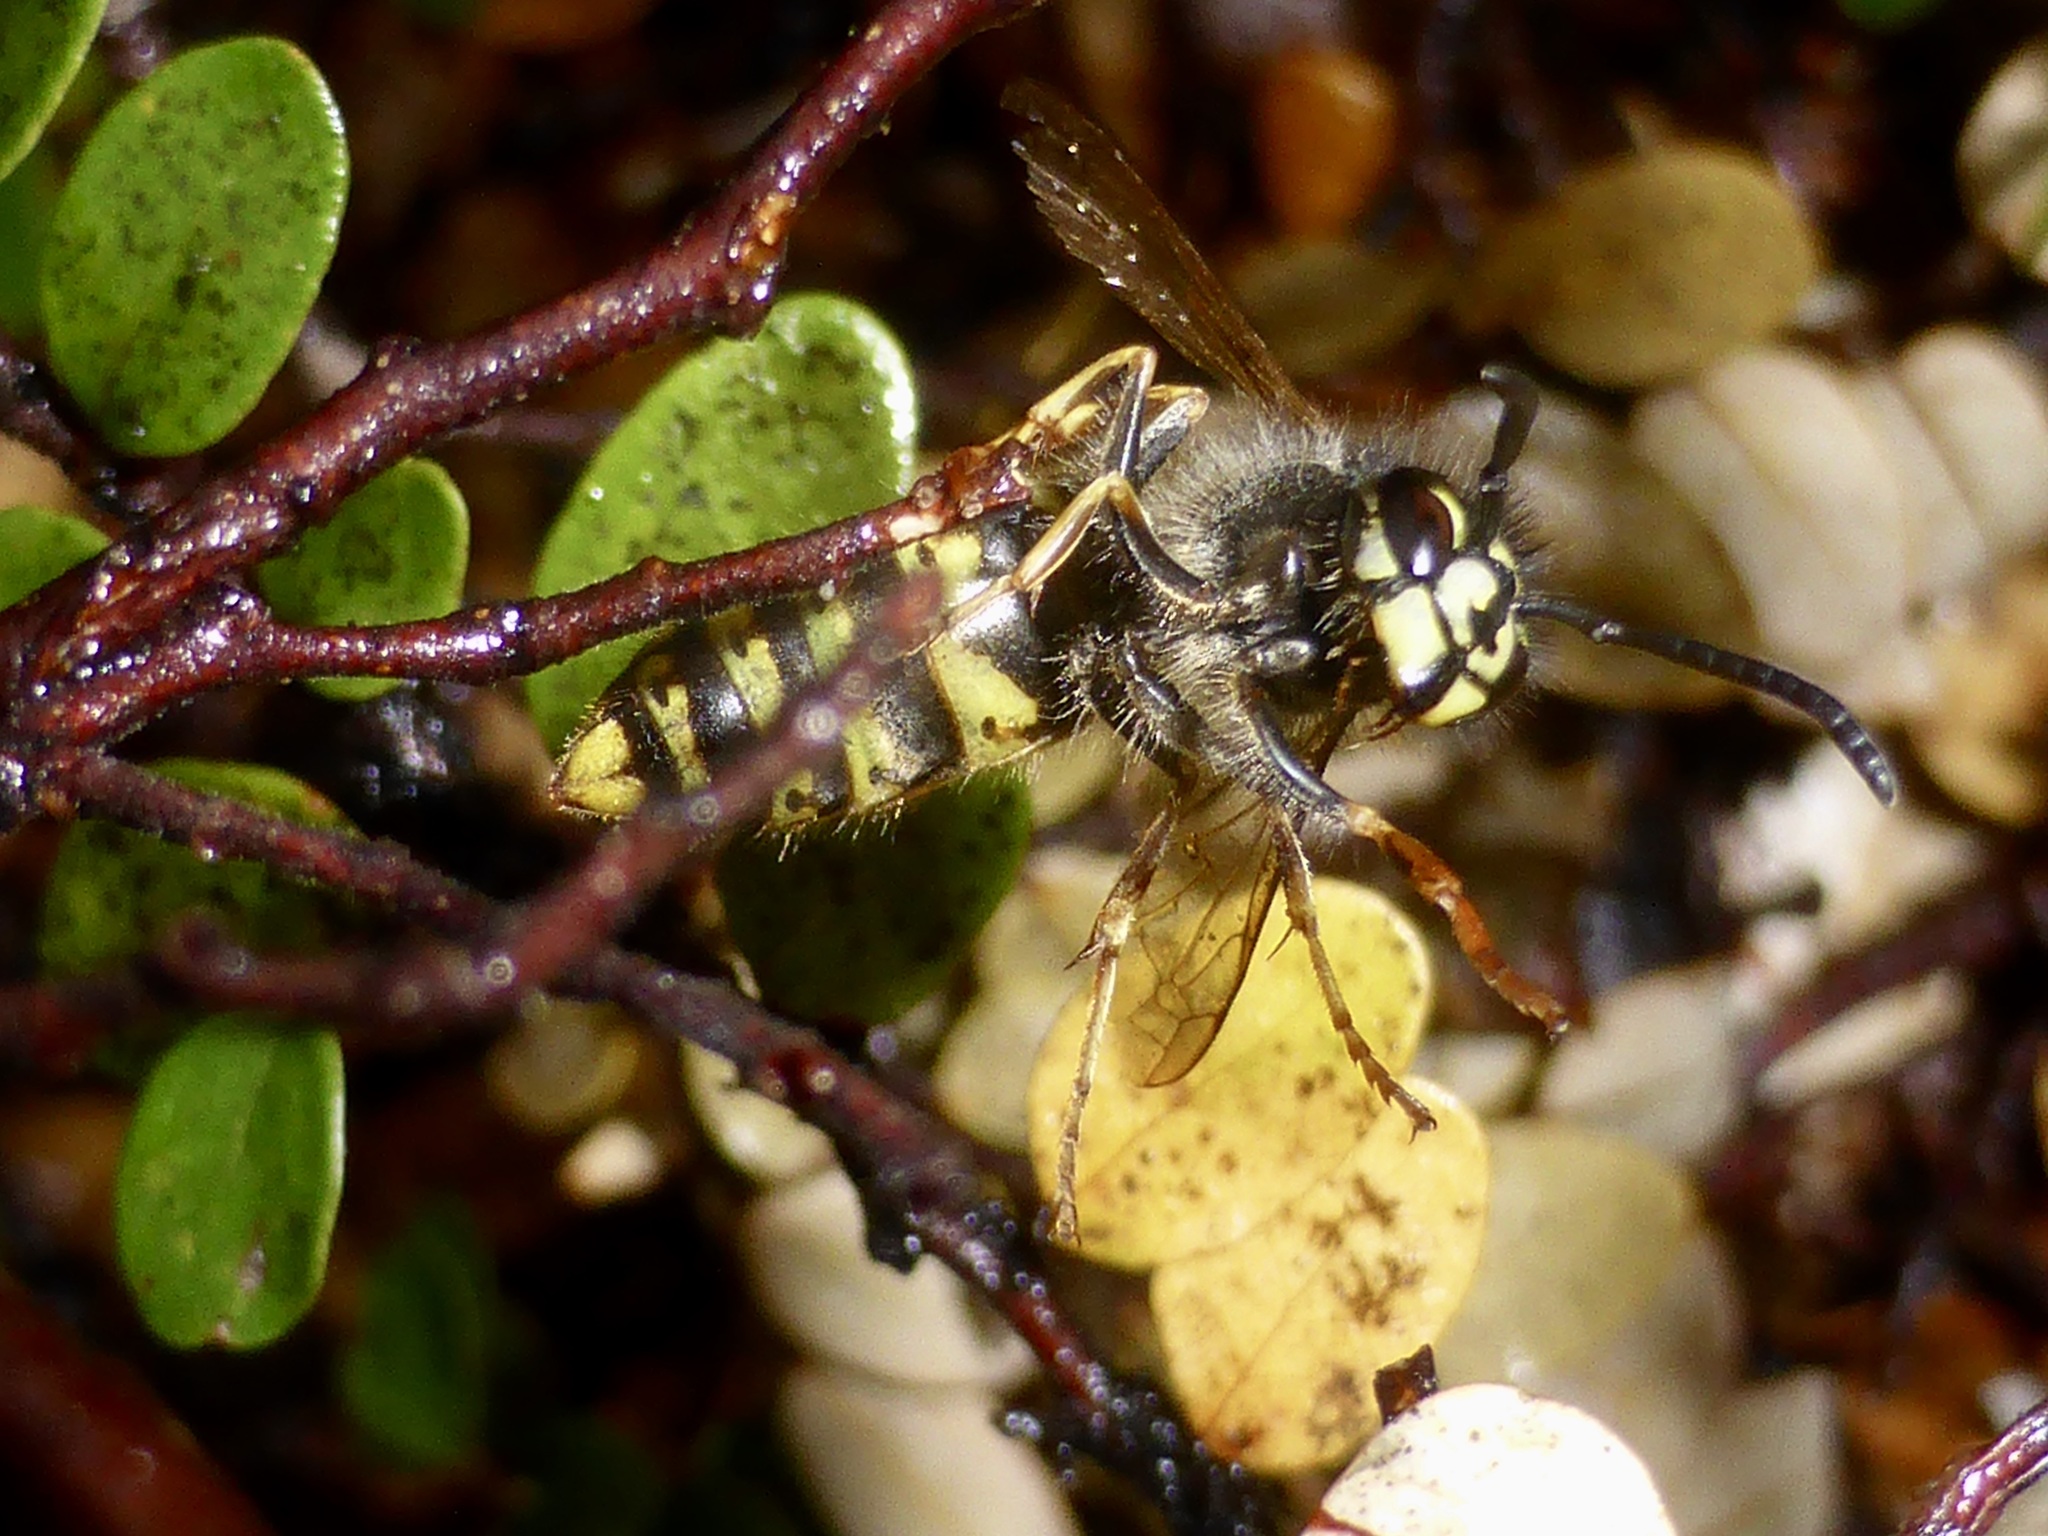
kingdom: Animalia
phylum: Arthropoda
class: Insecta
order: Hymenoptera
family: Vespidae
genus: Vespula
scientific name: Vespula vulgaris
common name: Common wasp
